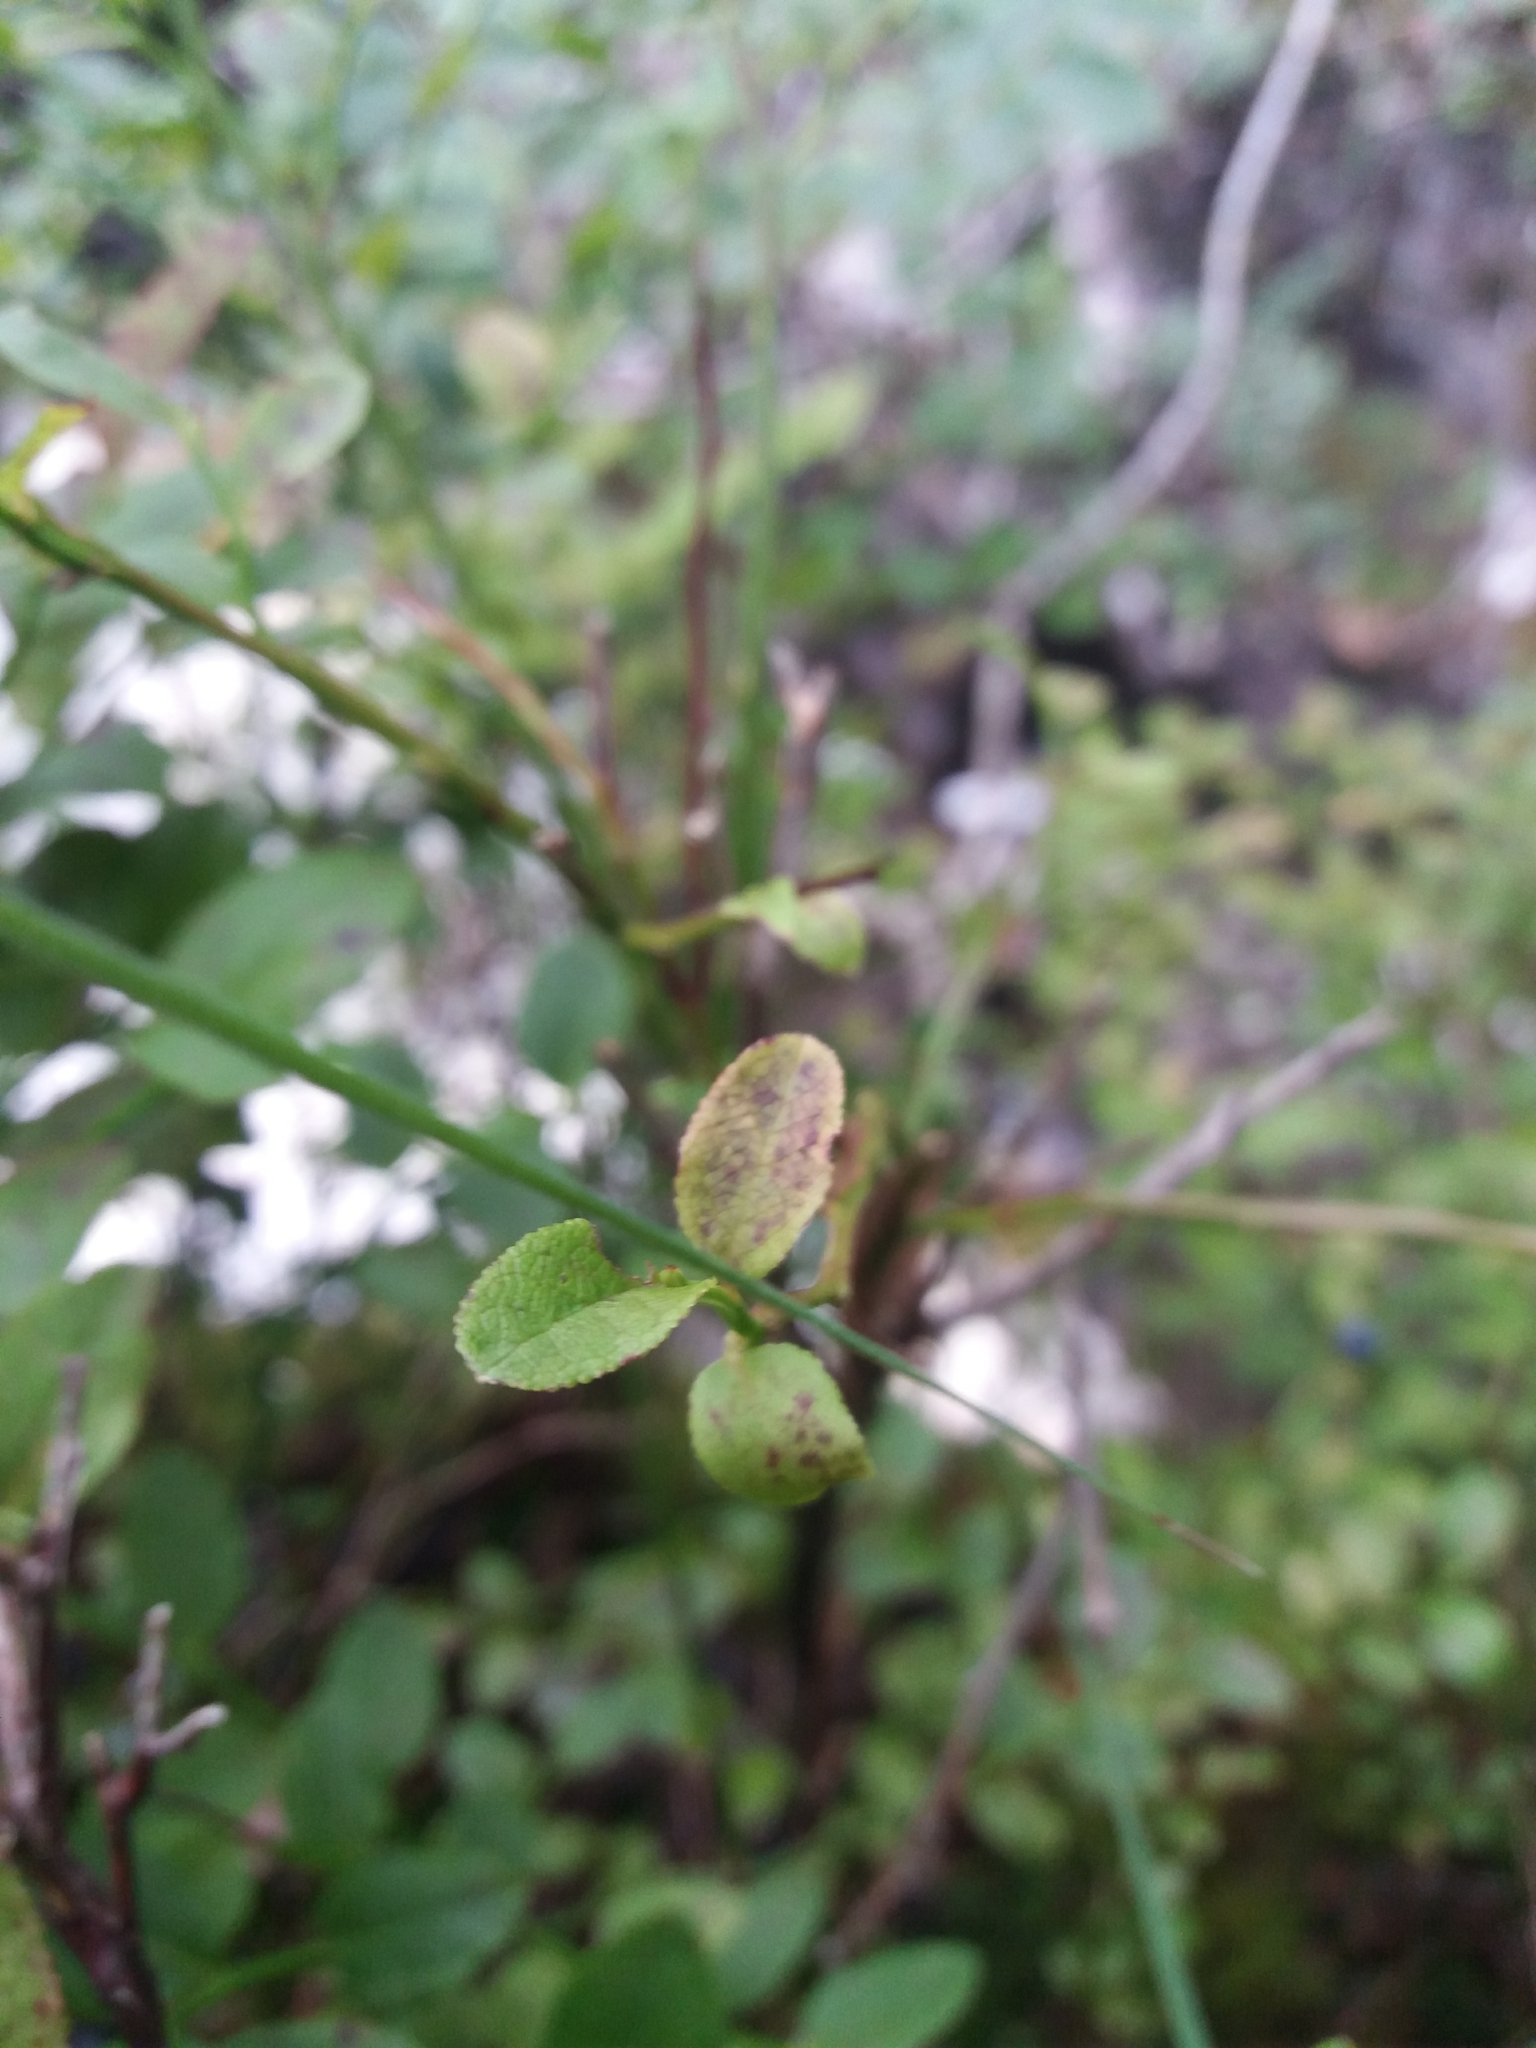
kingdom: Plantae
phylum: Tracheophyta
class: Magnoliopsida
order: Ericales
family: Ericaceae
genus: Vaccinium
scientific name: Vaccinium myrtillus
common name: Bilberry
